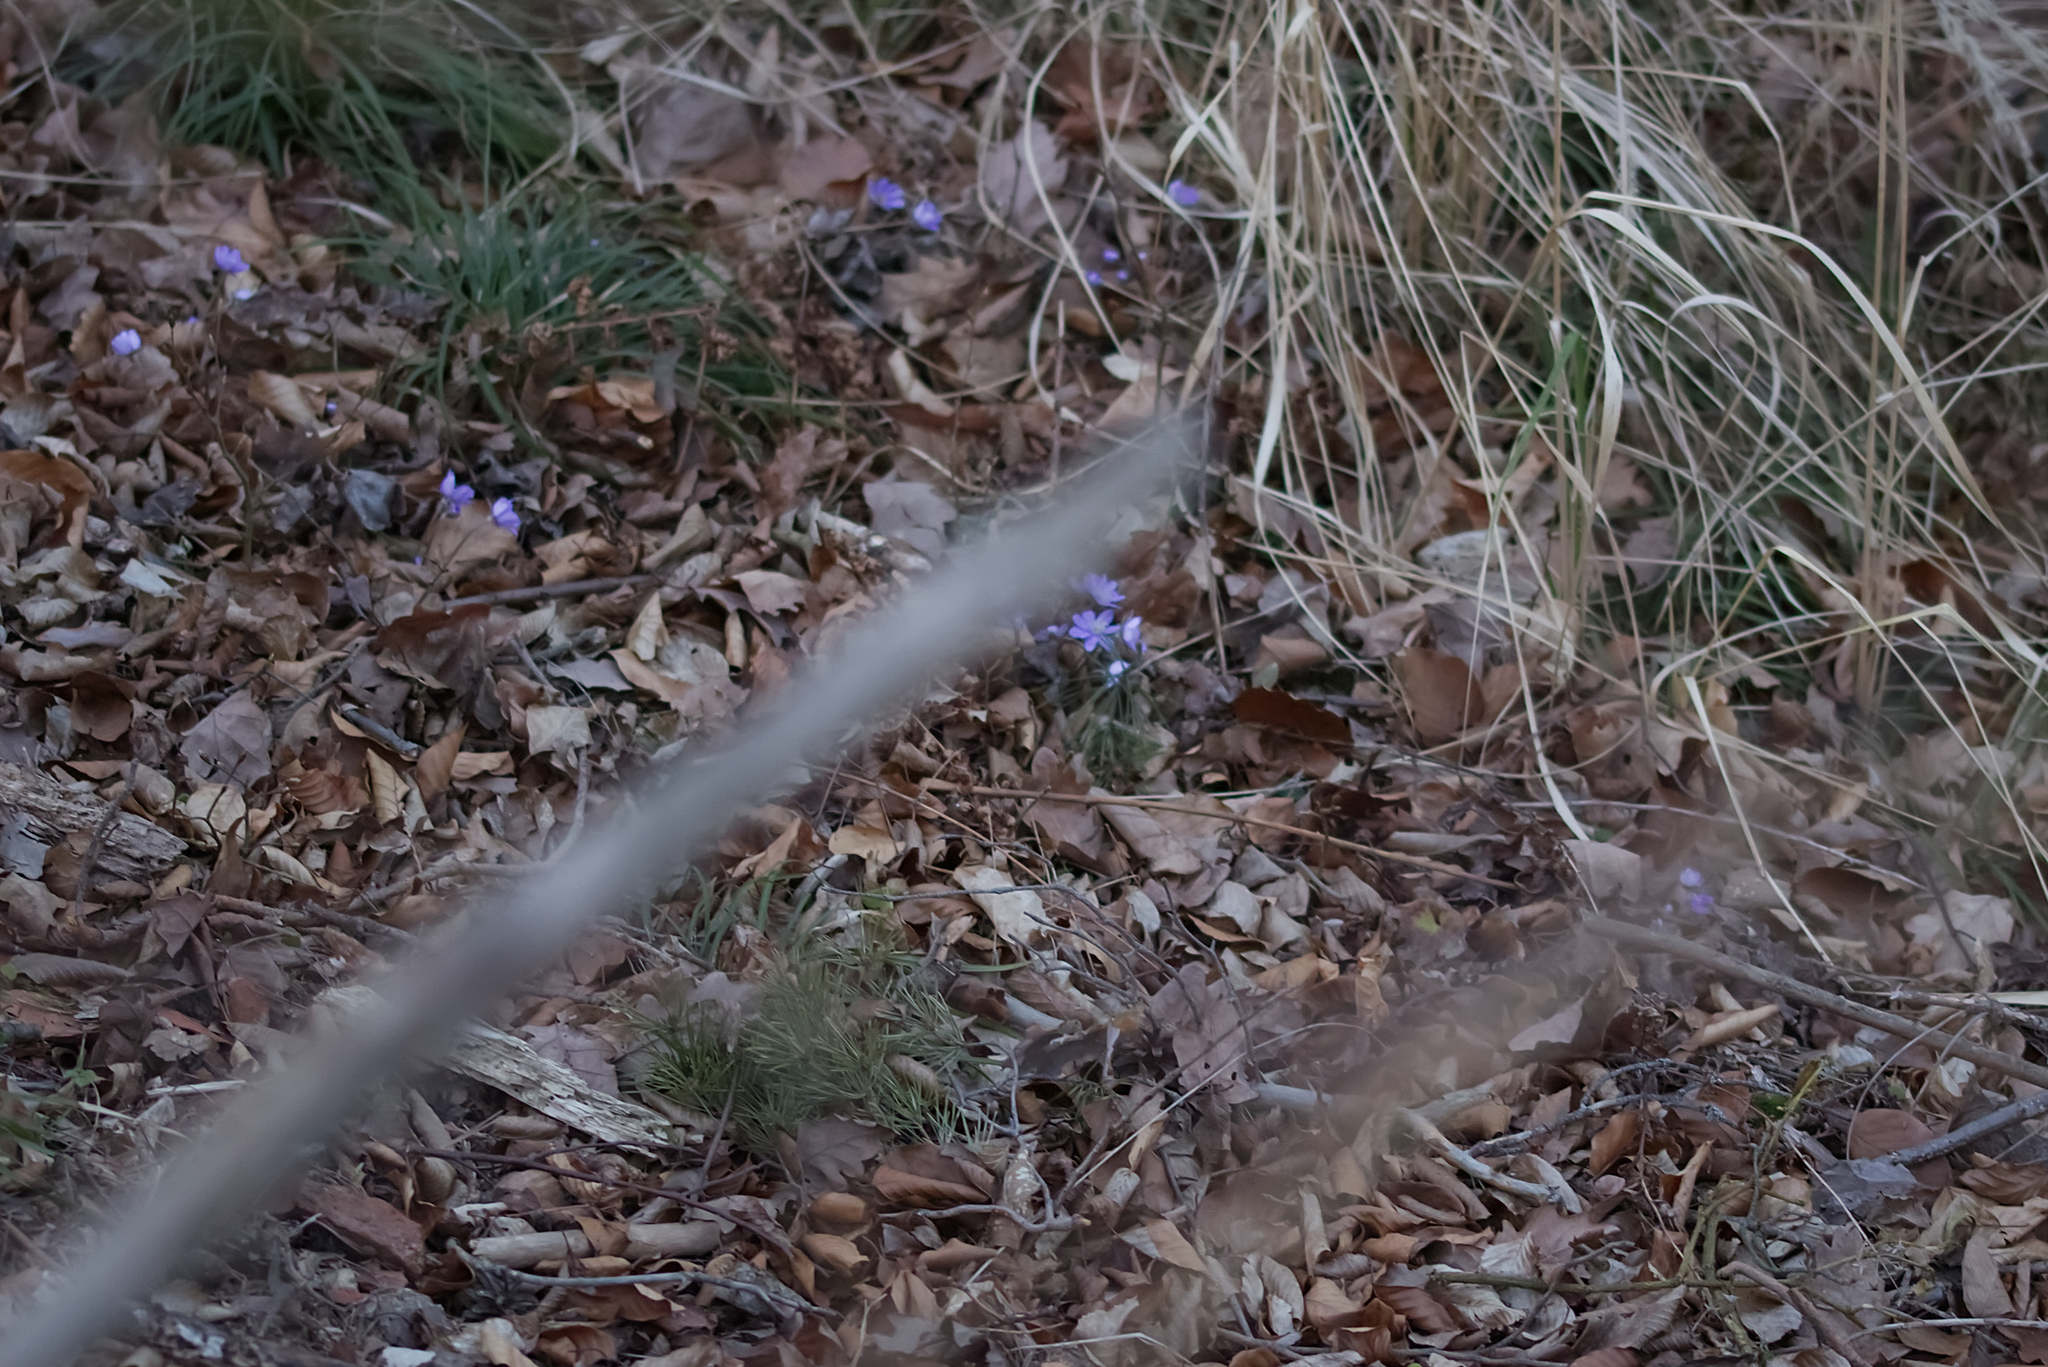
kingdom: Plantae
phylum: Tracheophyta
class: Magnoliopsida
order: Ranunculales
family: Ranunculaceae
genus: Hepatica
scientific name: Hepatica nobilis
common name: Liverleaf
